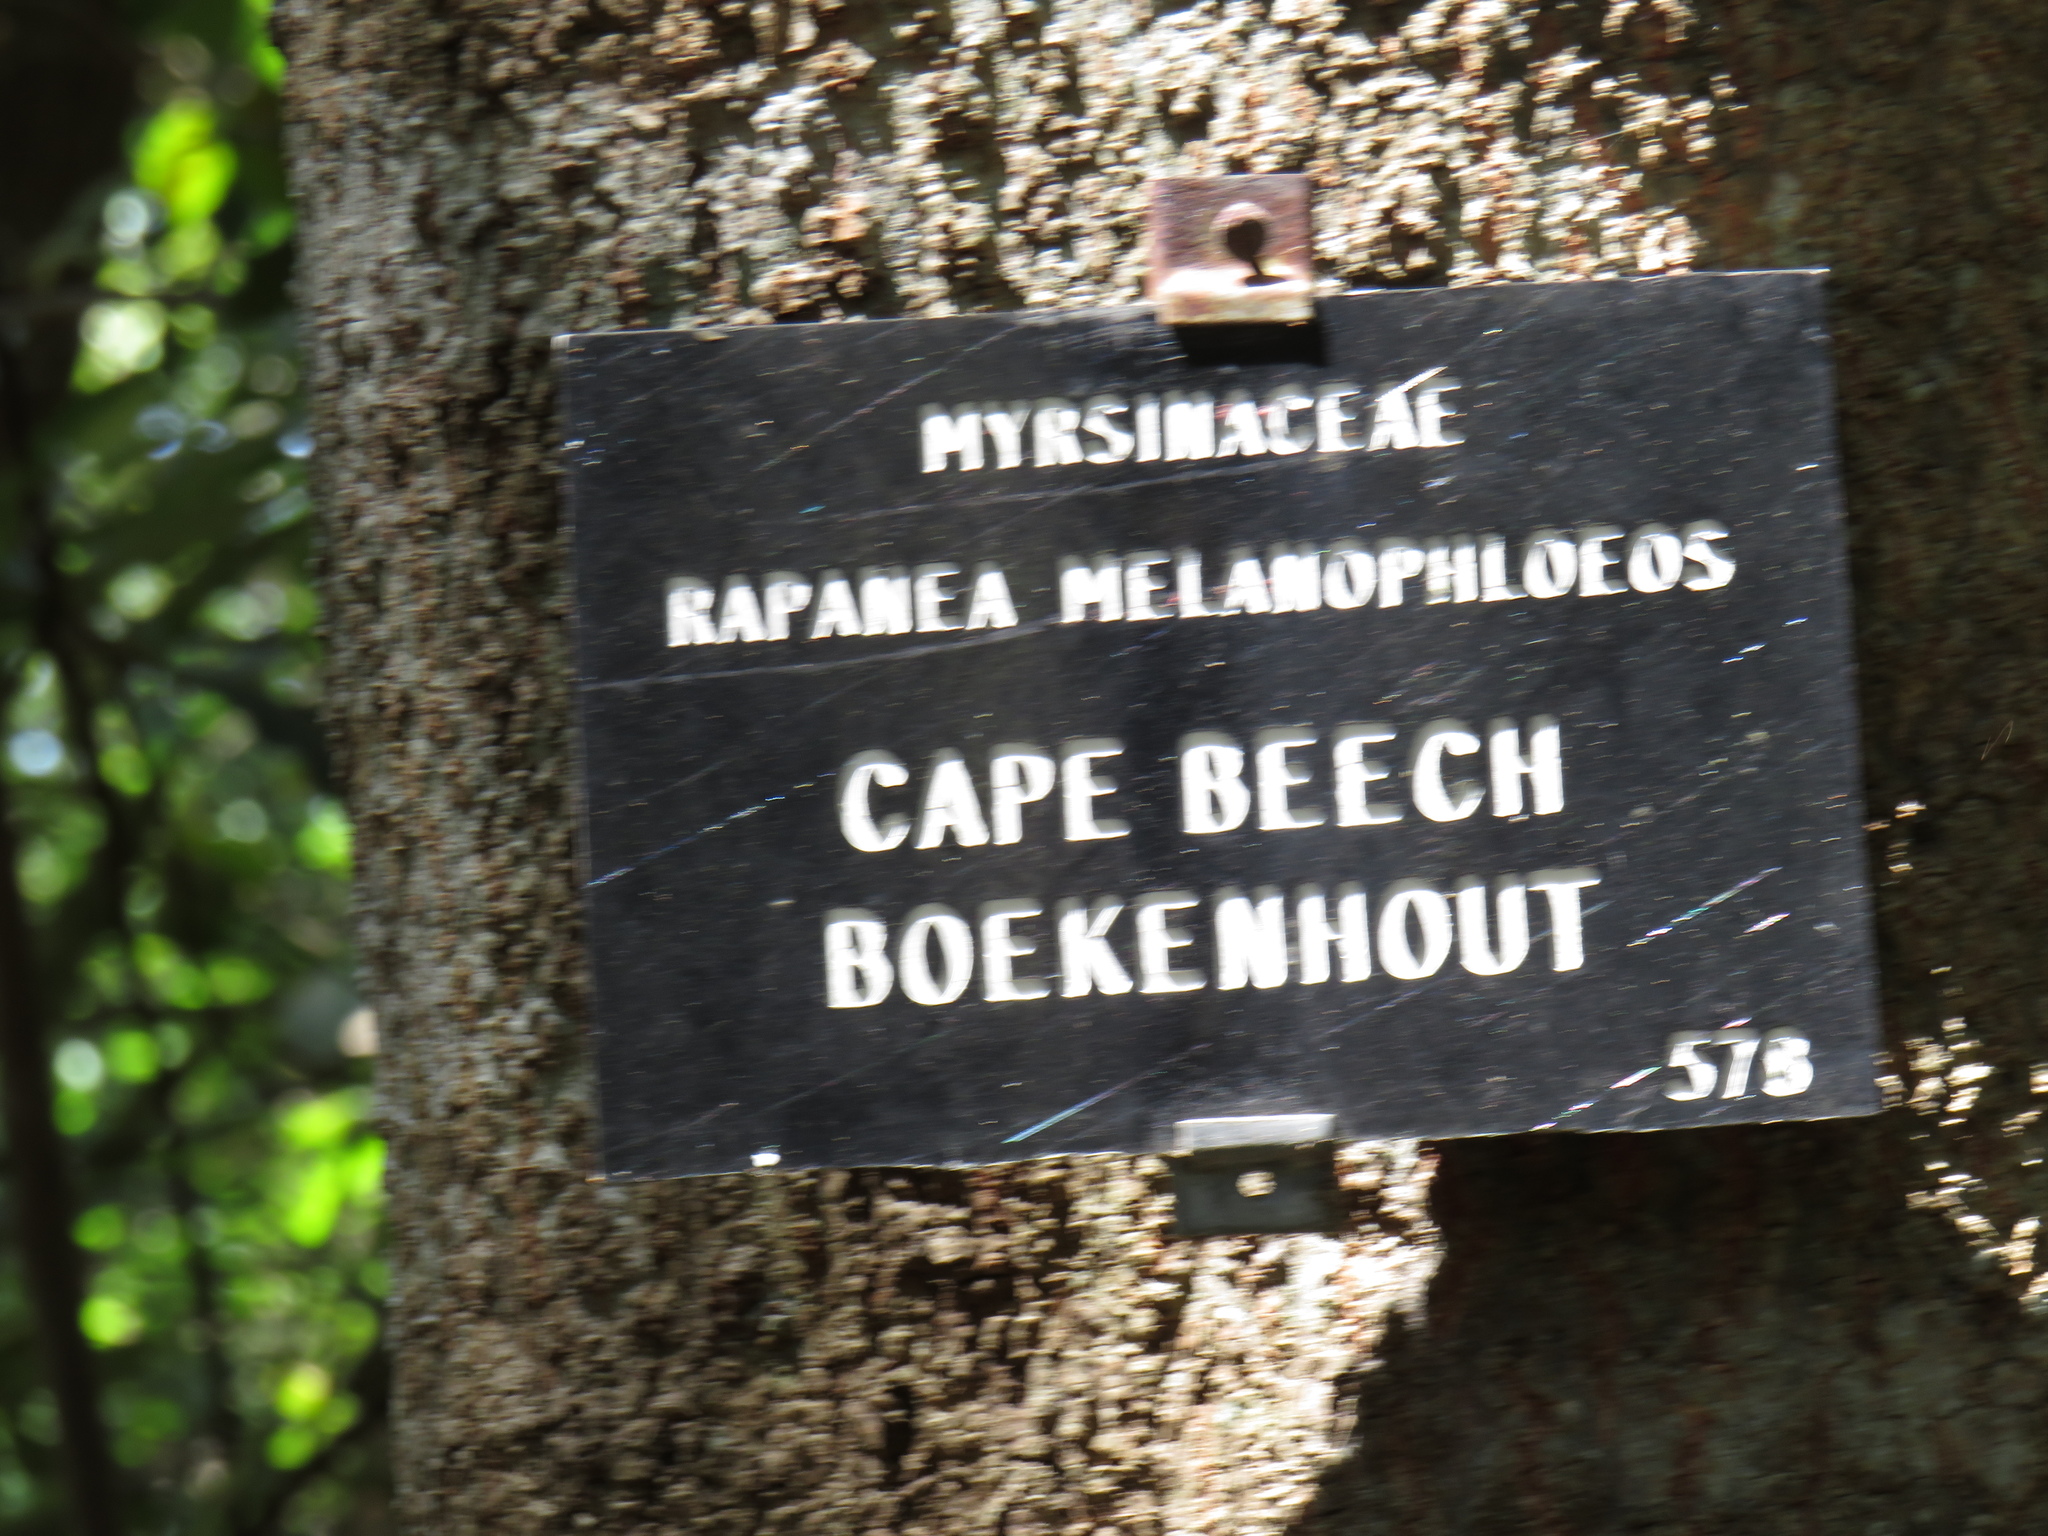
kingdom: Plantae
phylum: Tracheophyta
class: Magnoliopsida
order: Ericales
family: Primulaceae
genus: Myrsine
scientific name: Myrsine melanophloeos
